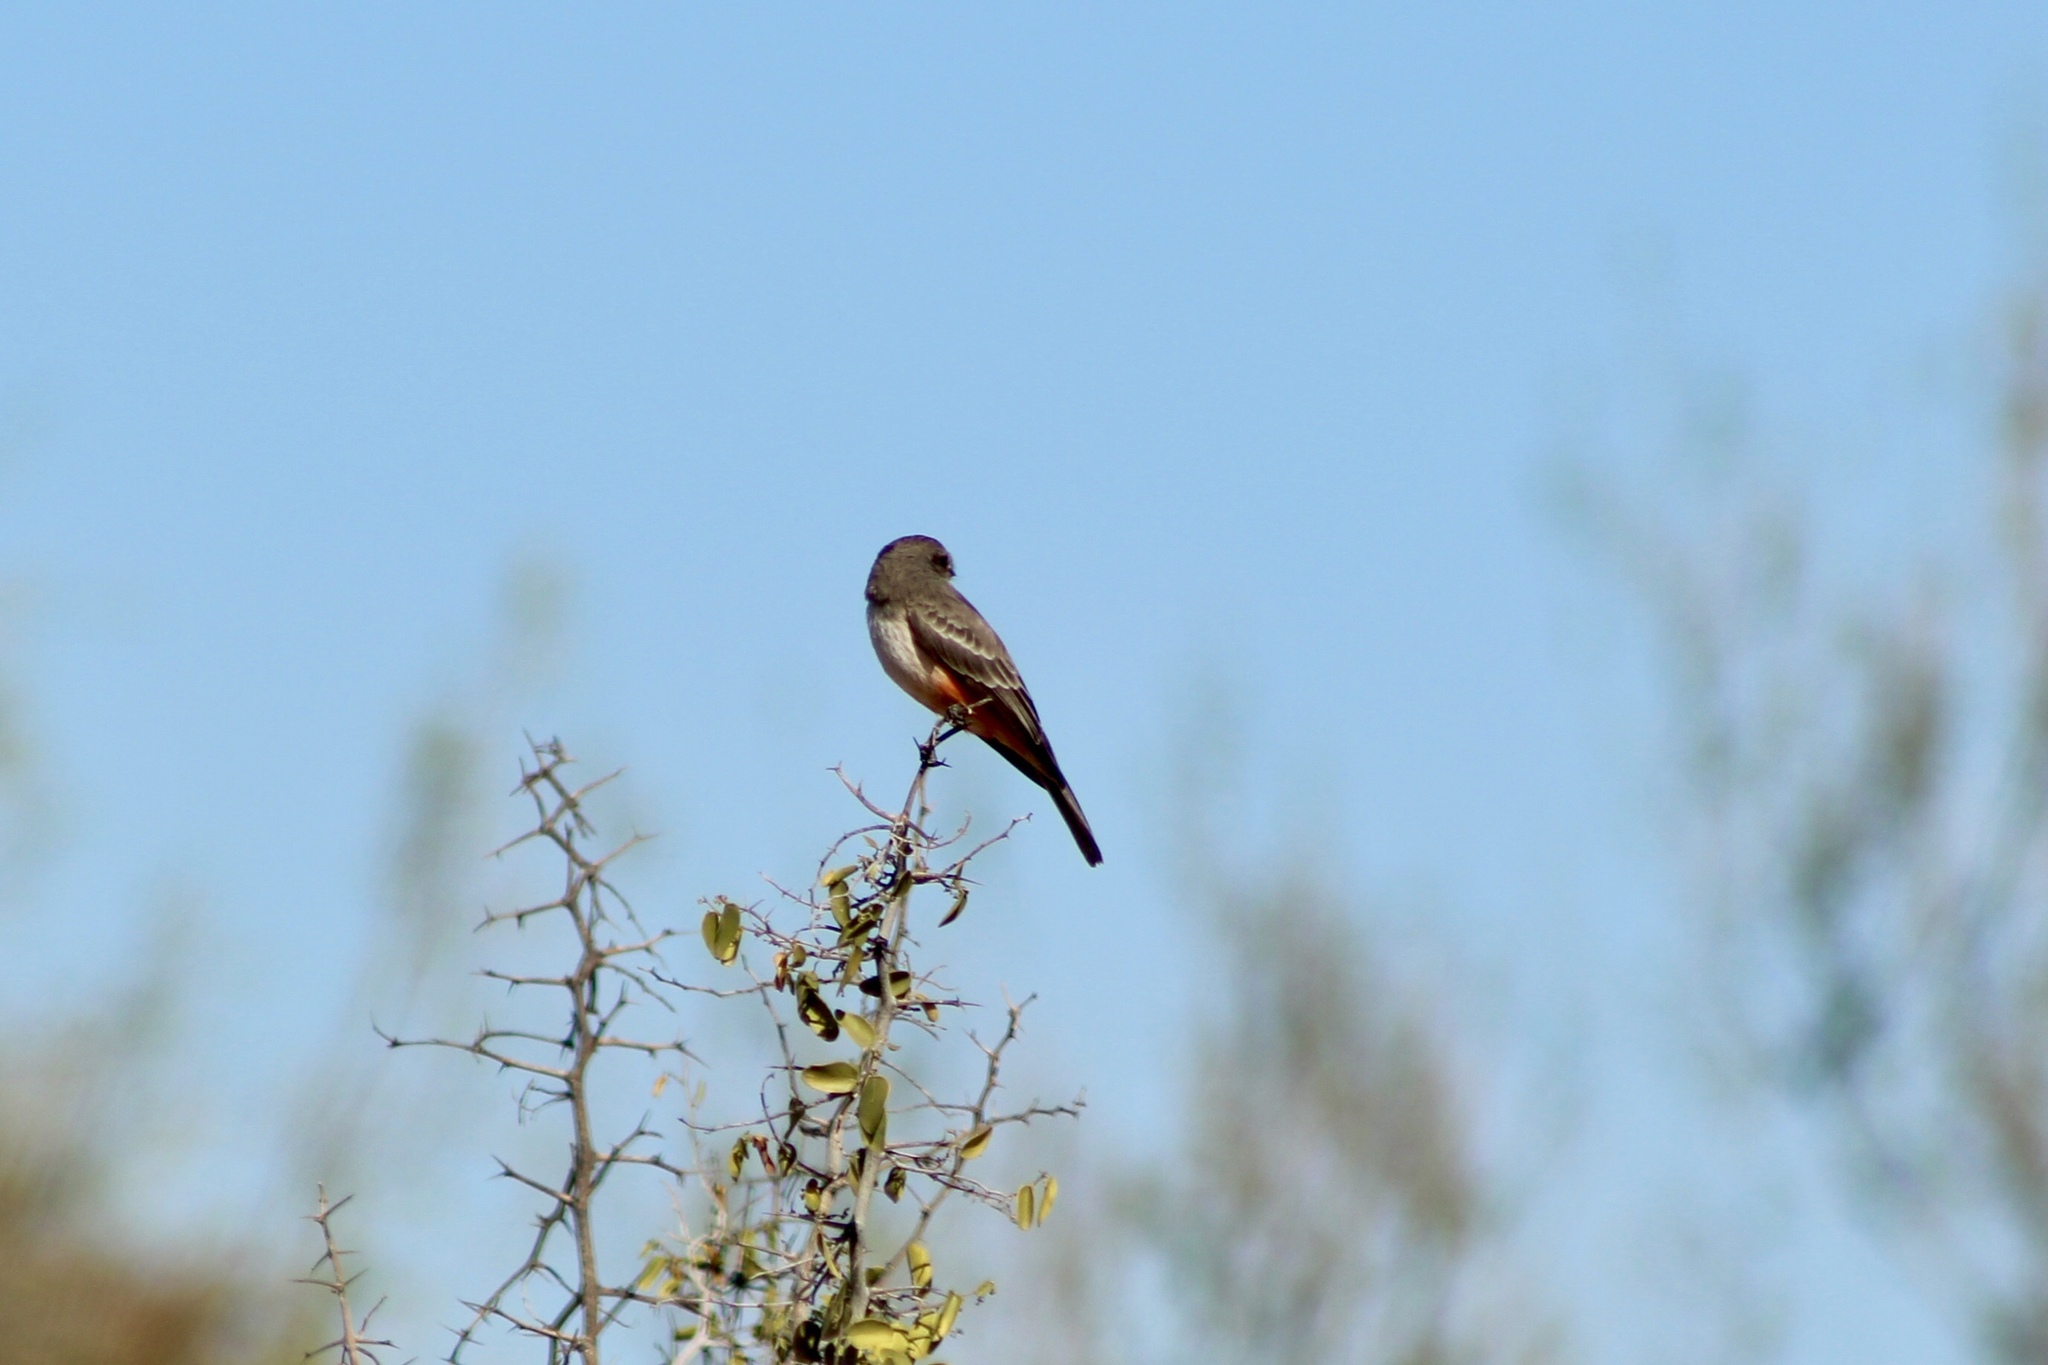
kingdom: Animalia
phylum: Chordata
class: Aves
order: Passeriformes
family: Tyrannidae
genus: Pyrocephalus
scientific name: Pyrocephalus rubinus
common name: Vermilion flycatcher
